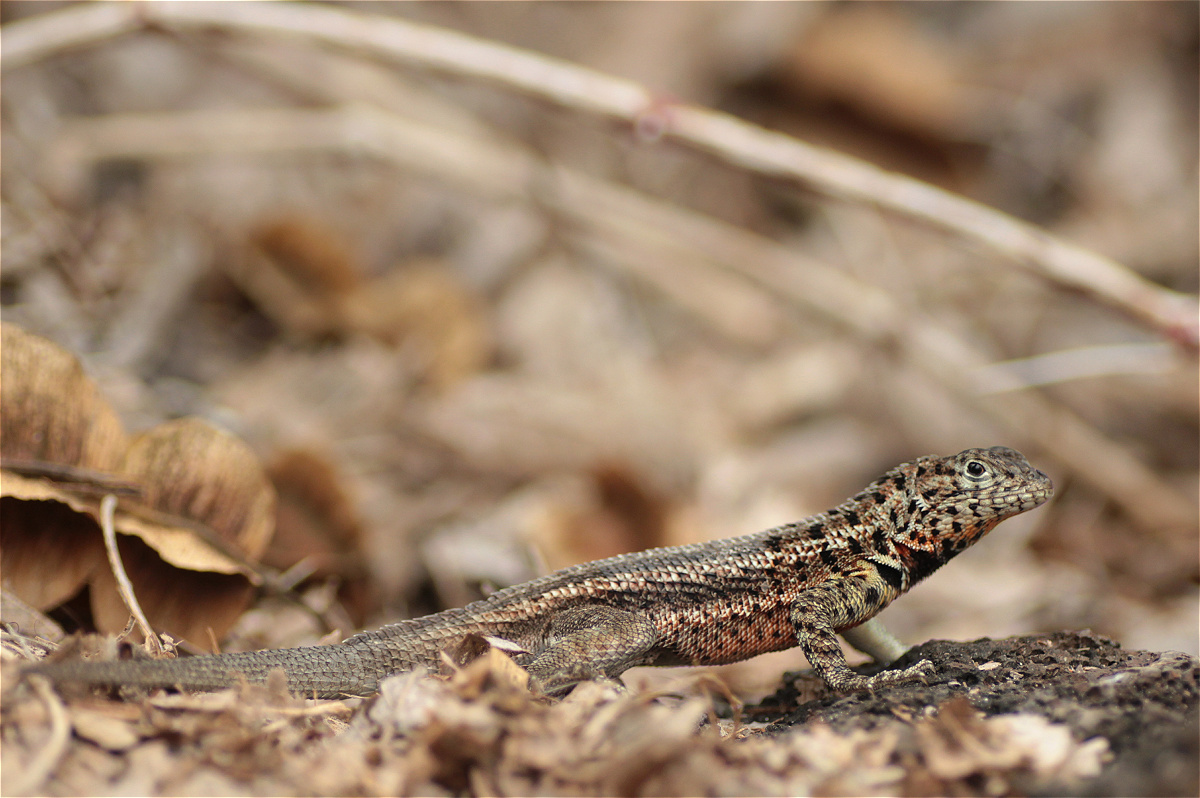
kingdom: Animalia
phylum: Chordata
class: Squamata
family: Tropiduridae
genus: Microlophus
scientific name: Microlophus indefatigabilis
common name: Galapagos lava lizard
